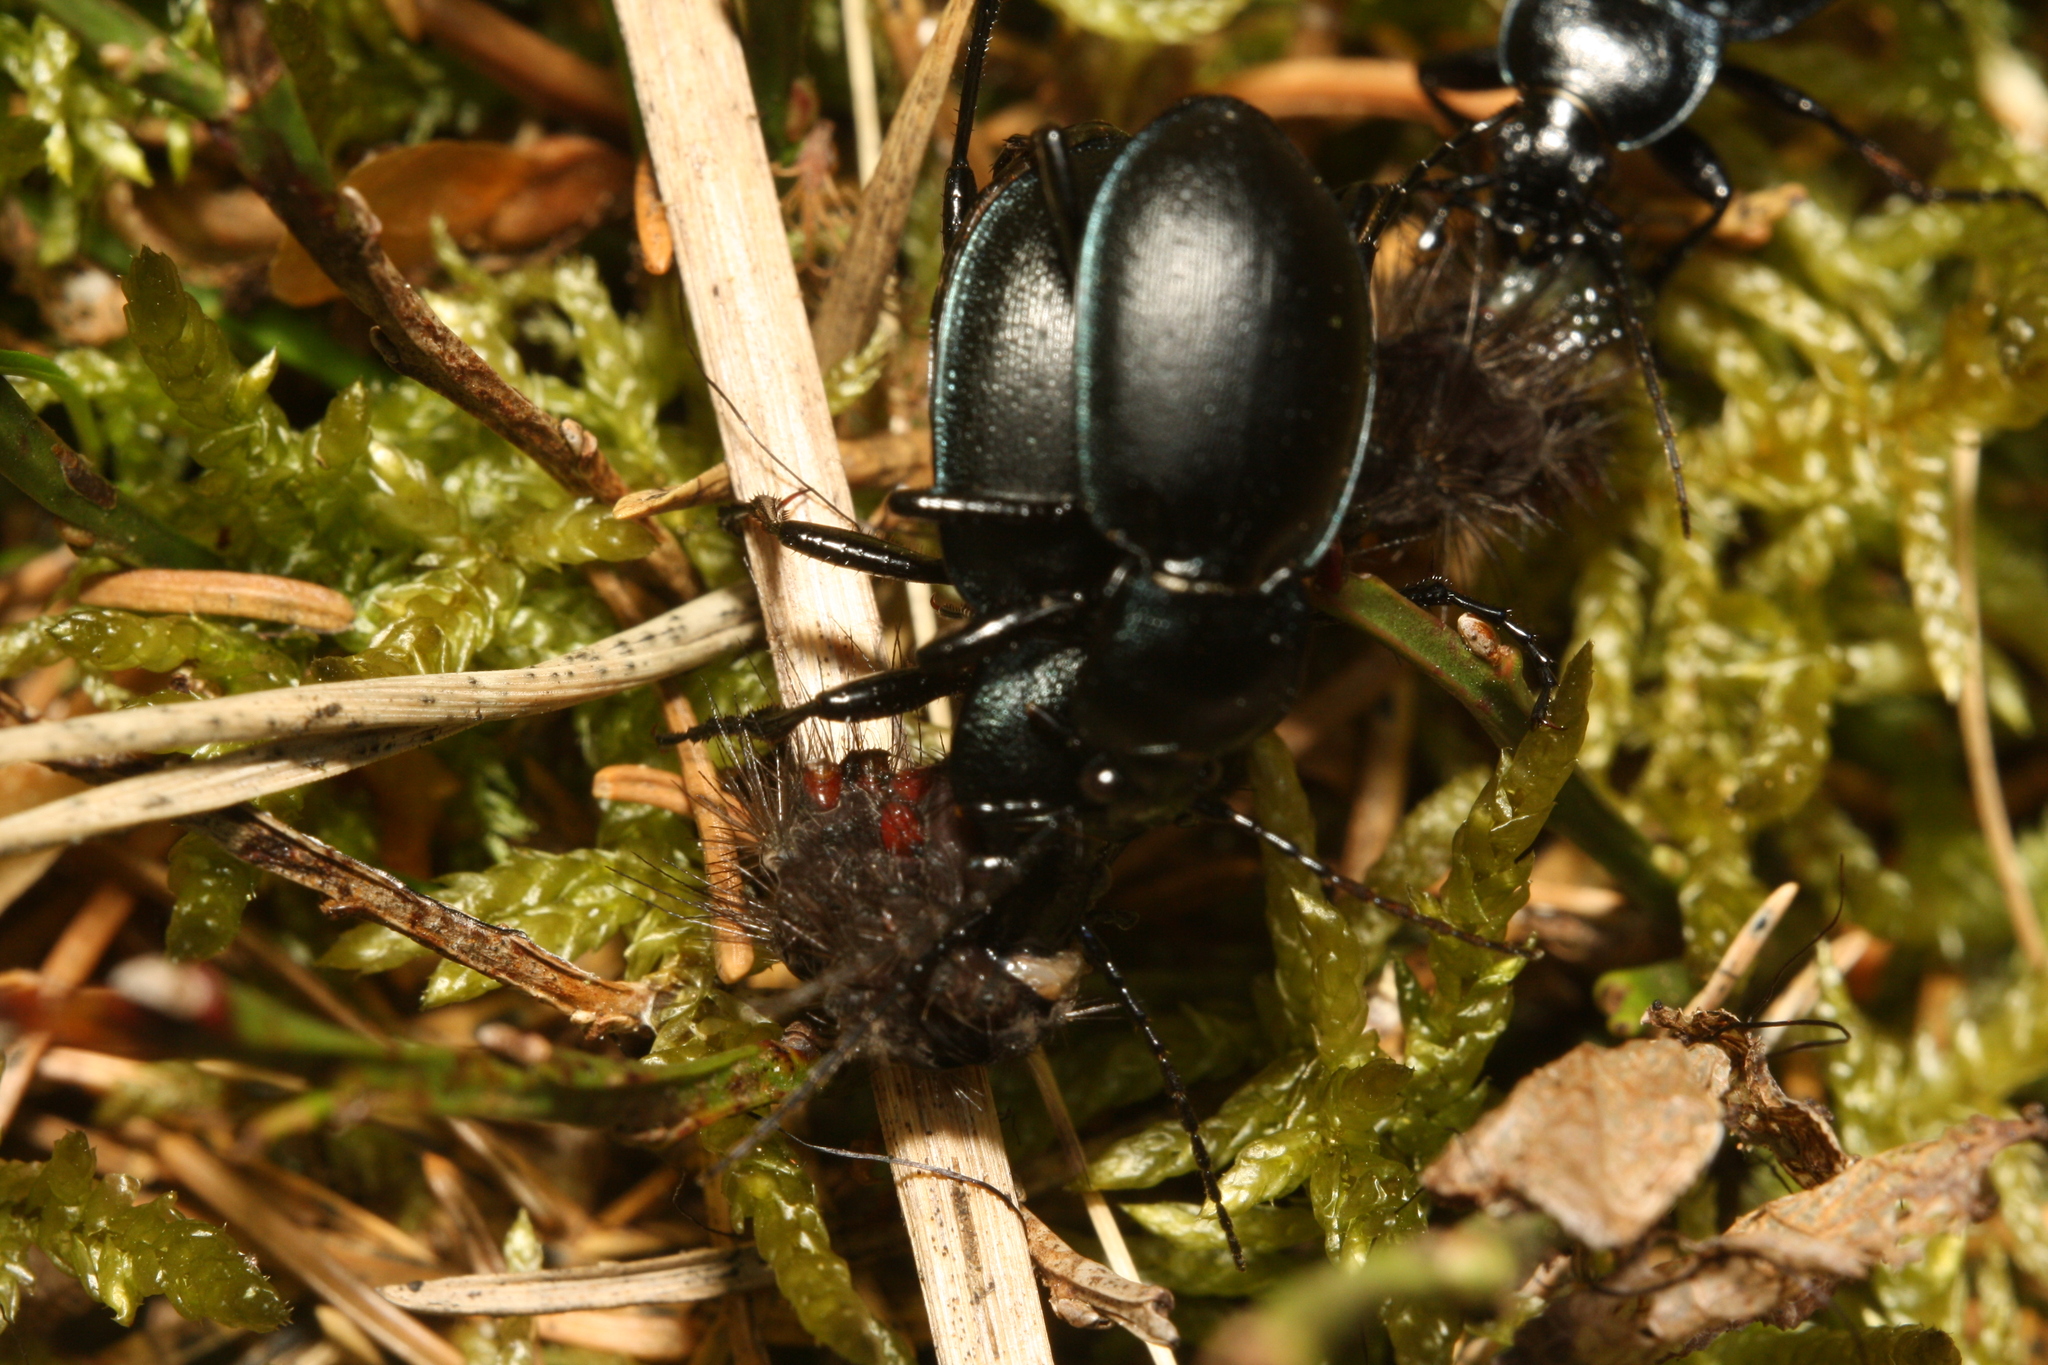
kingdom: Animalia
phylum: Arthropoda
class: Insecta
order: Coleoptera
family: Carabidae
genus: Carabus
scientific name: Carabus convexus
